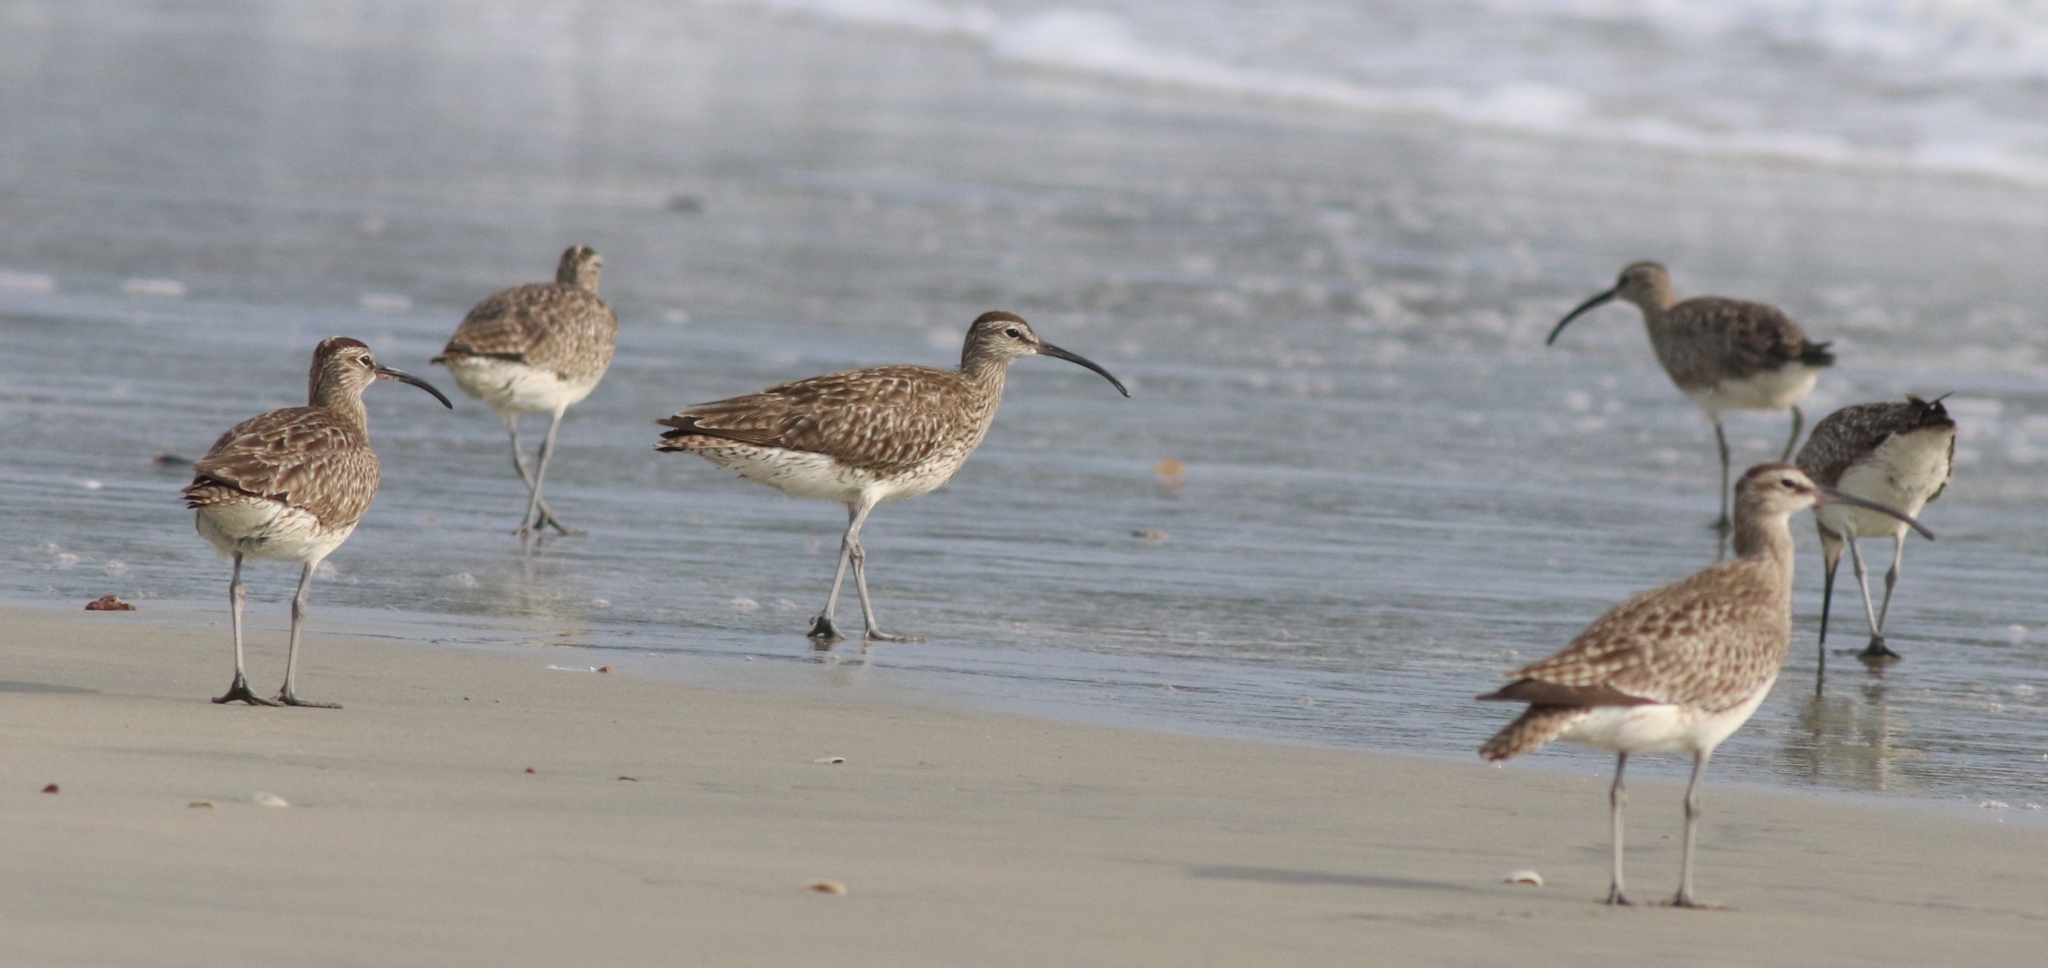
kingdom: Animalia
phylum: Chordata
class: Aves
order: Charadriiformes
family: Scolopacidae
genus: Numenius
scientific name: Numenius phaeopus
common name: Whimbrel
